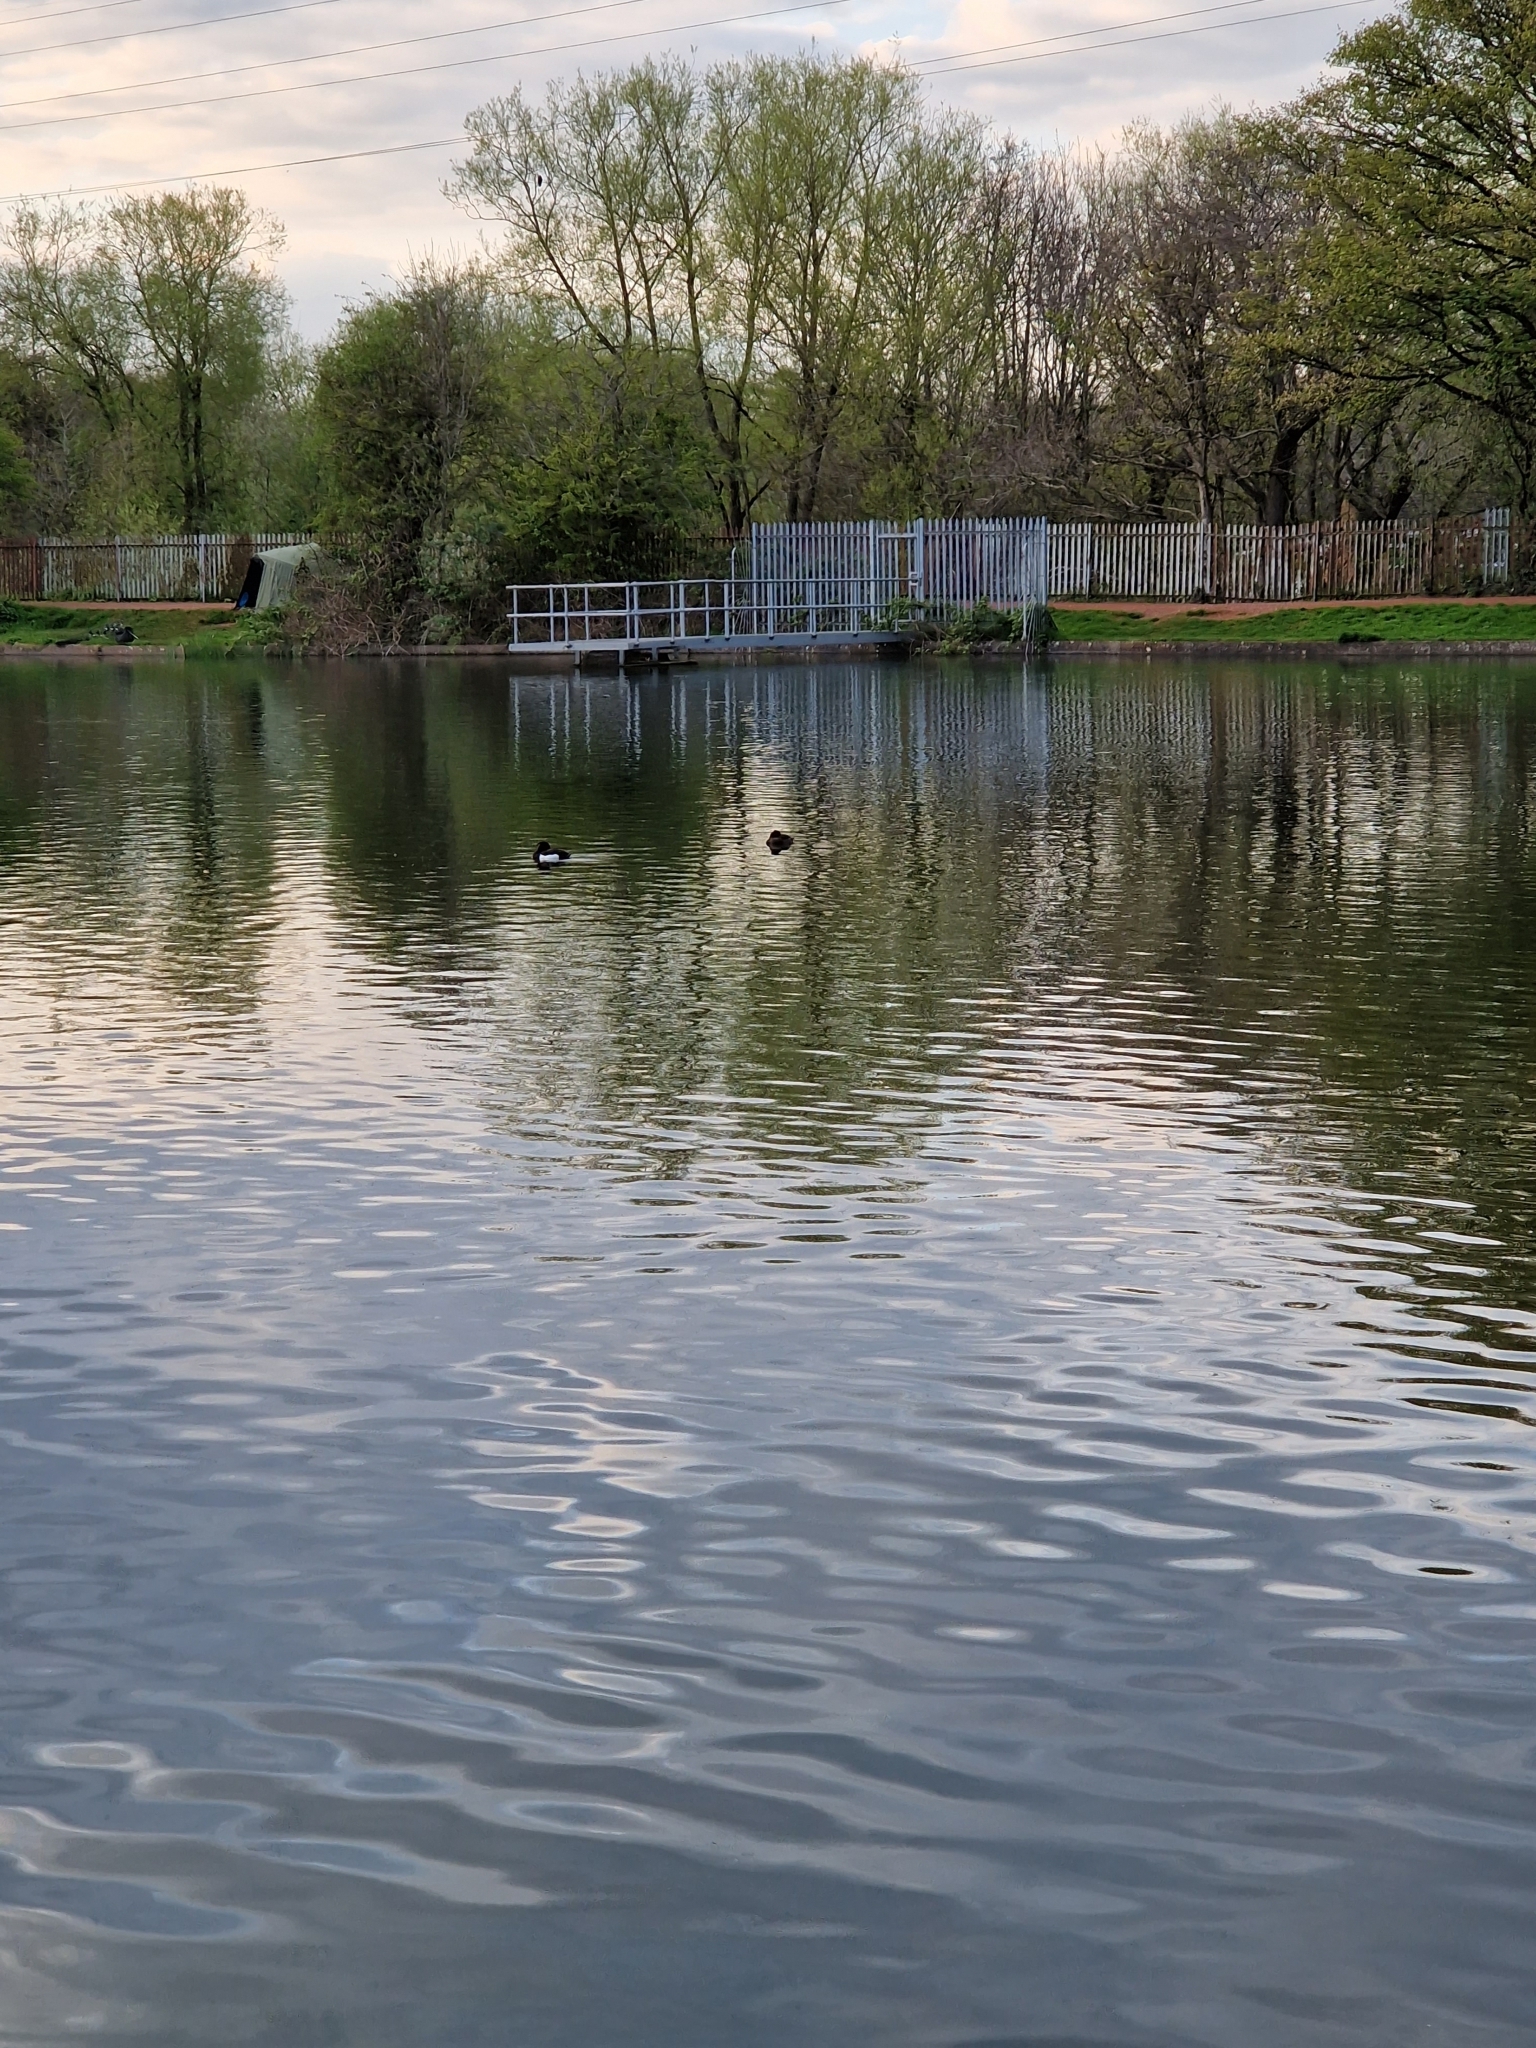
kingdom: Animalia
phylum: Chordata
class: Aves
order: Anseriformes
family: Anatidae
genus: Aythya
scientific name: Aythya fuligula
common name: Tufted duck
